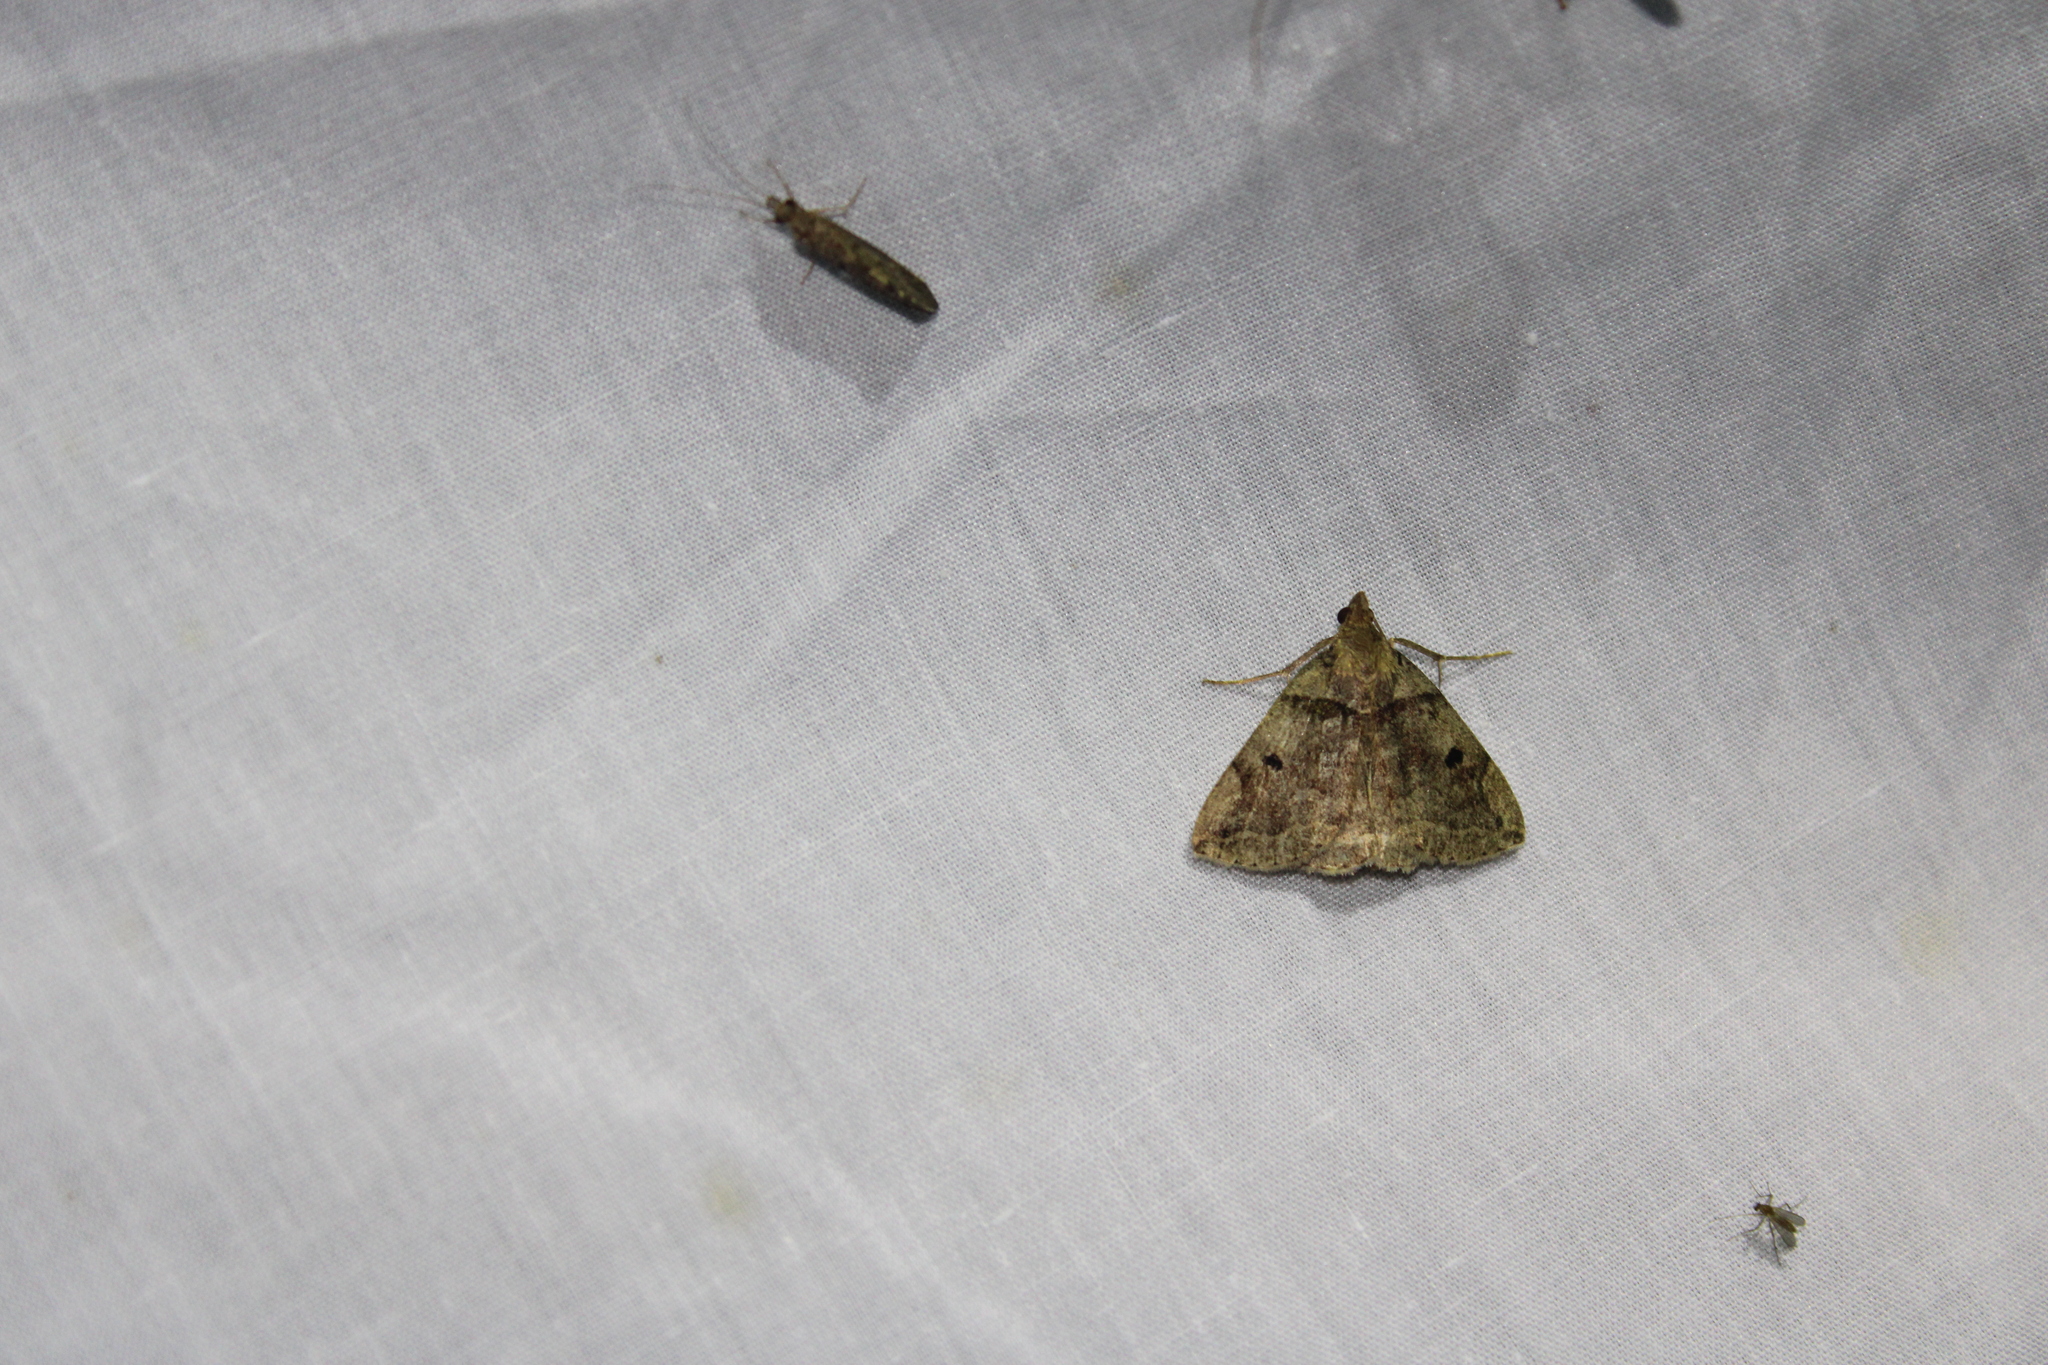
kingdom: Animalia
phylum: Arthropoda
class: Insecta
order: Lepidoptera
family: Erebidae
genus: Zanclognatha
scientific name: Zanclognatha laevigata
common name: Variable fan-foot
